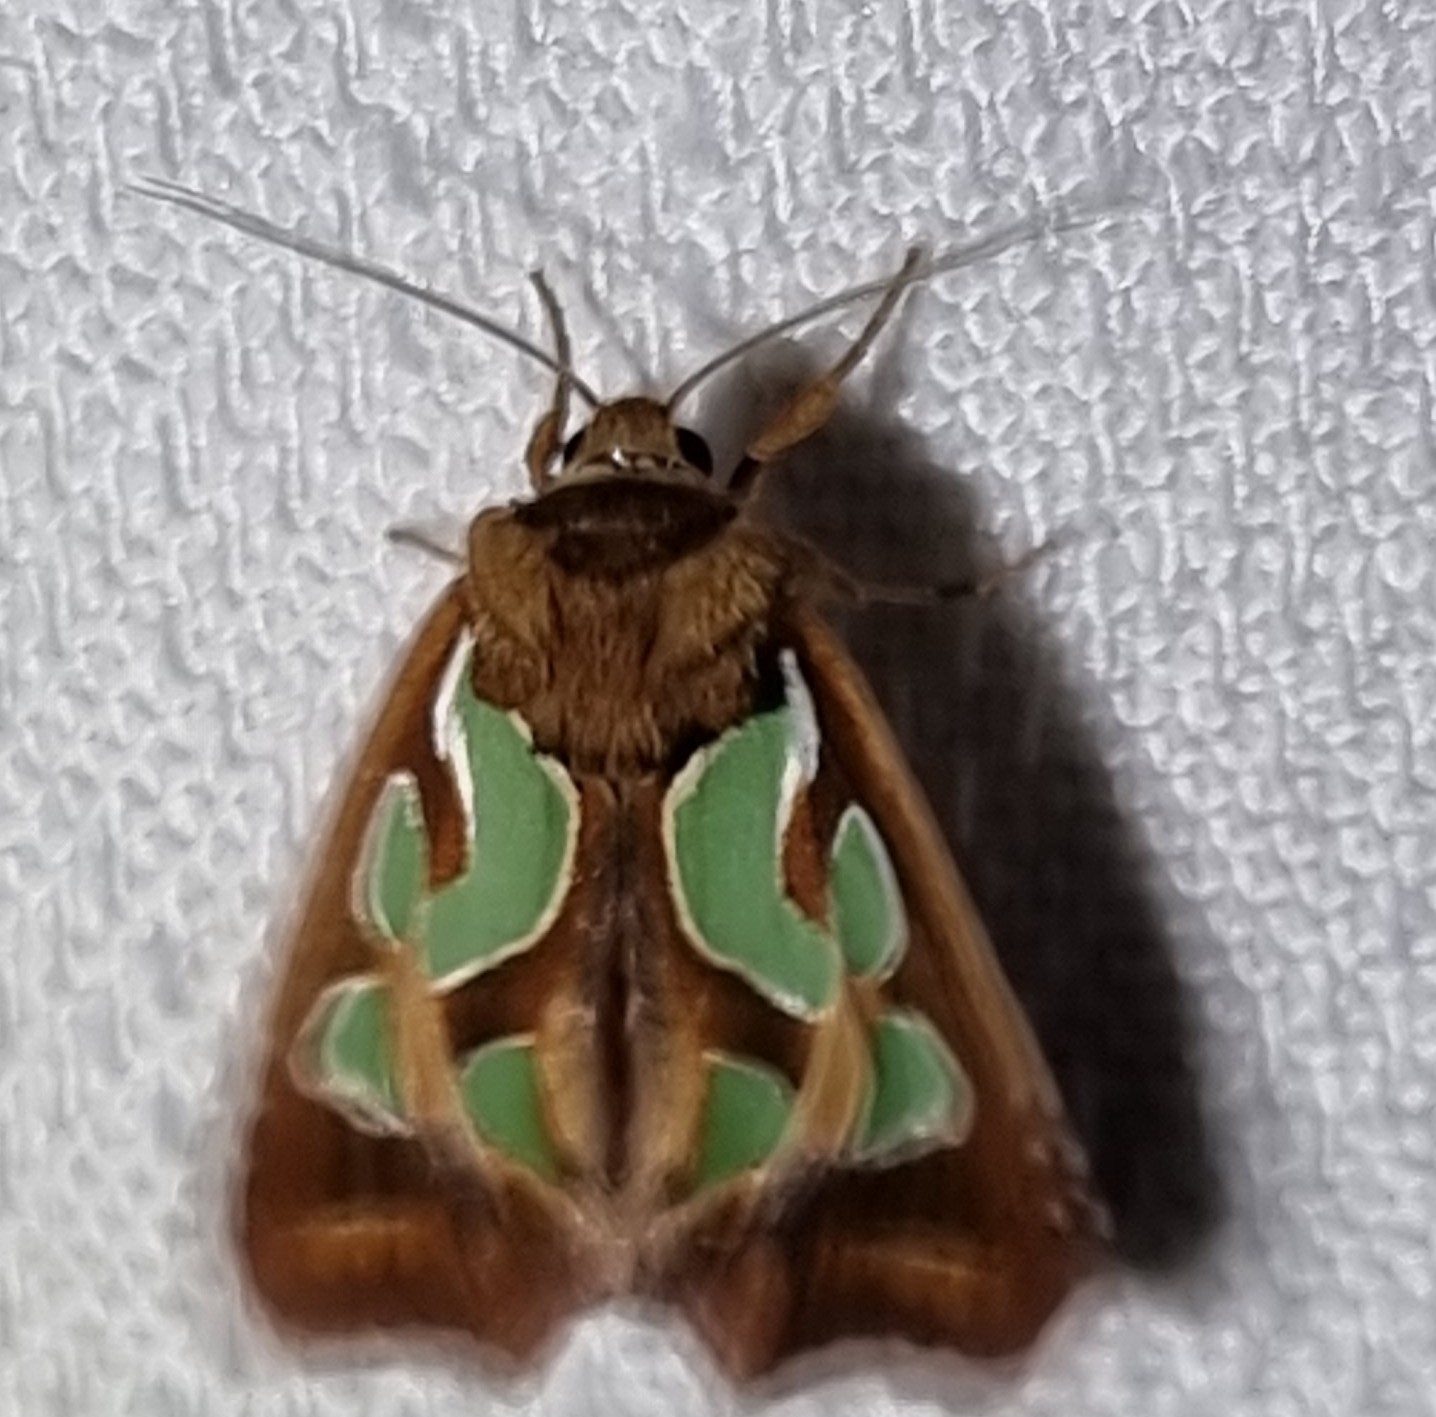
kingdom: Animalia
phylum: Arthropoda
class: Insecta
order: Lepidoptera
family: Noctuidae
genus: Cosmodes
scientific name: Cosmodes elegans
